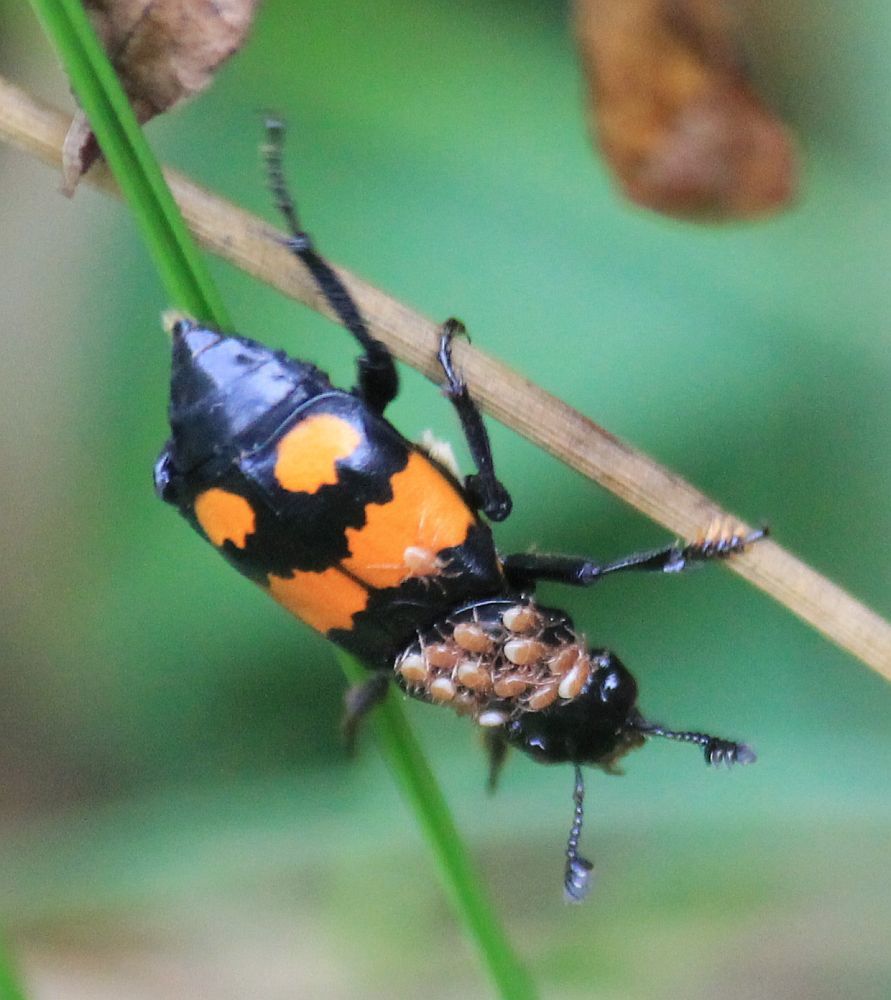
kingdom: Animalia
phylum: Arthropoda
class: Insecta
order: Coleoptera
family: Staphylinidae
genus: Nicrophorus
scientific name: Nicrophorus vespilloides
